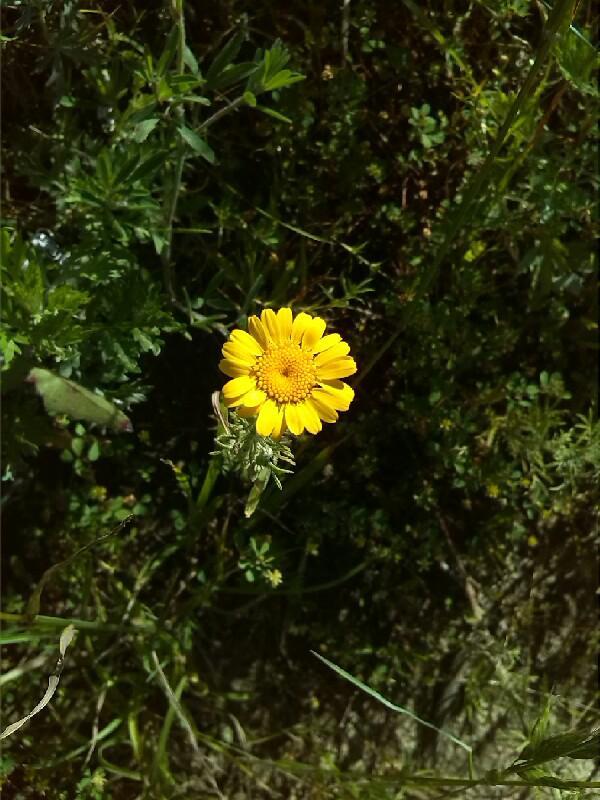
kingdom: Plantae
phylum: Tracheophyta
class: Magnoliopsida
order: Asterales
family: Asteraceae
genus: Cota
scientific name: Cota tinctoria
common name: Golden chamomile
